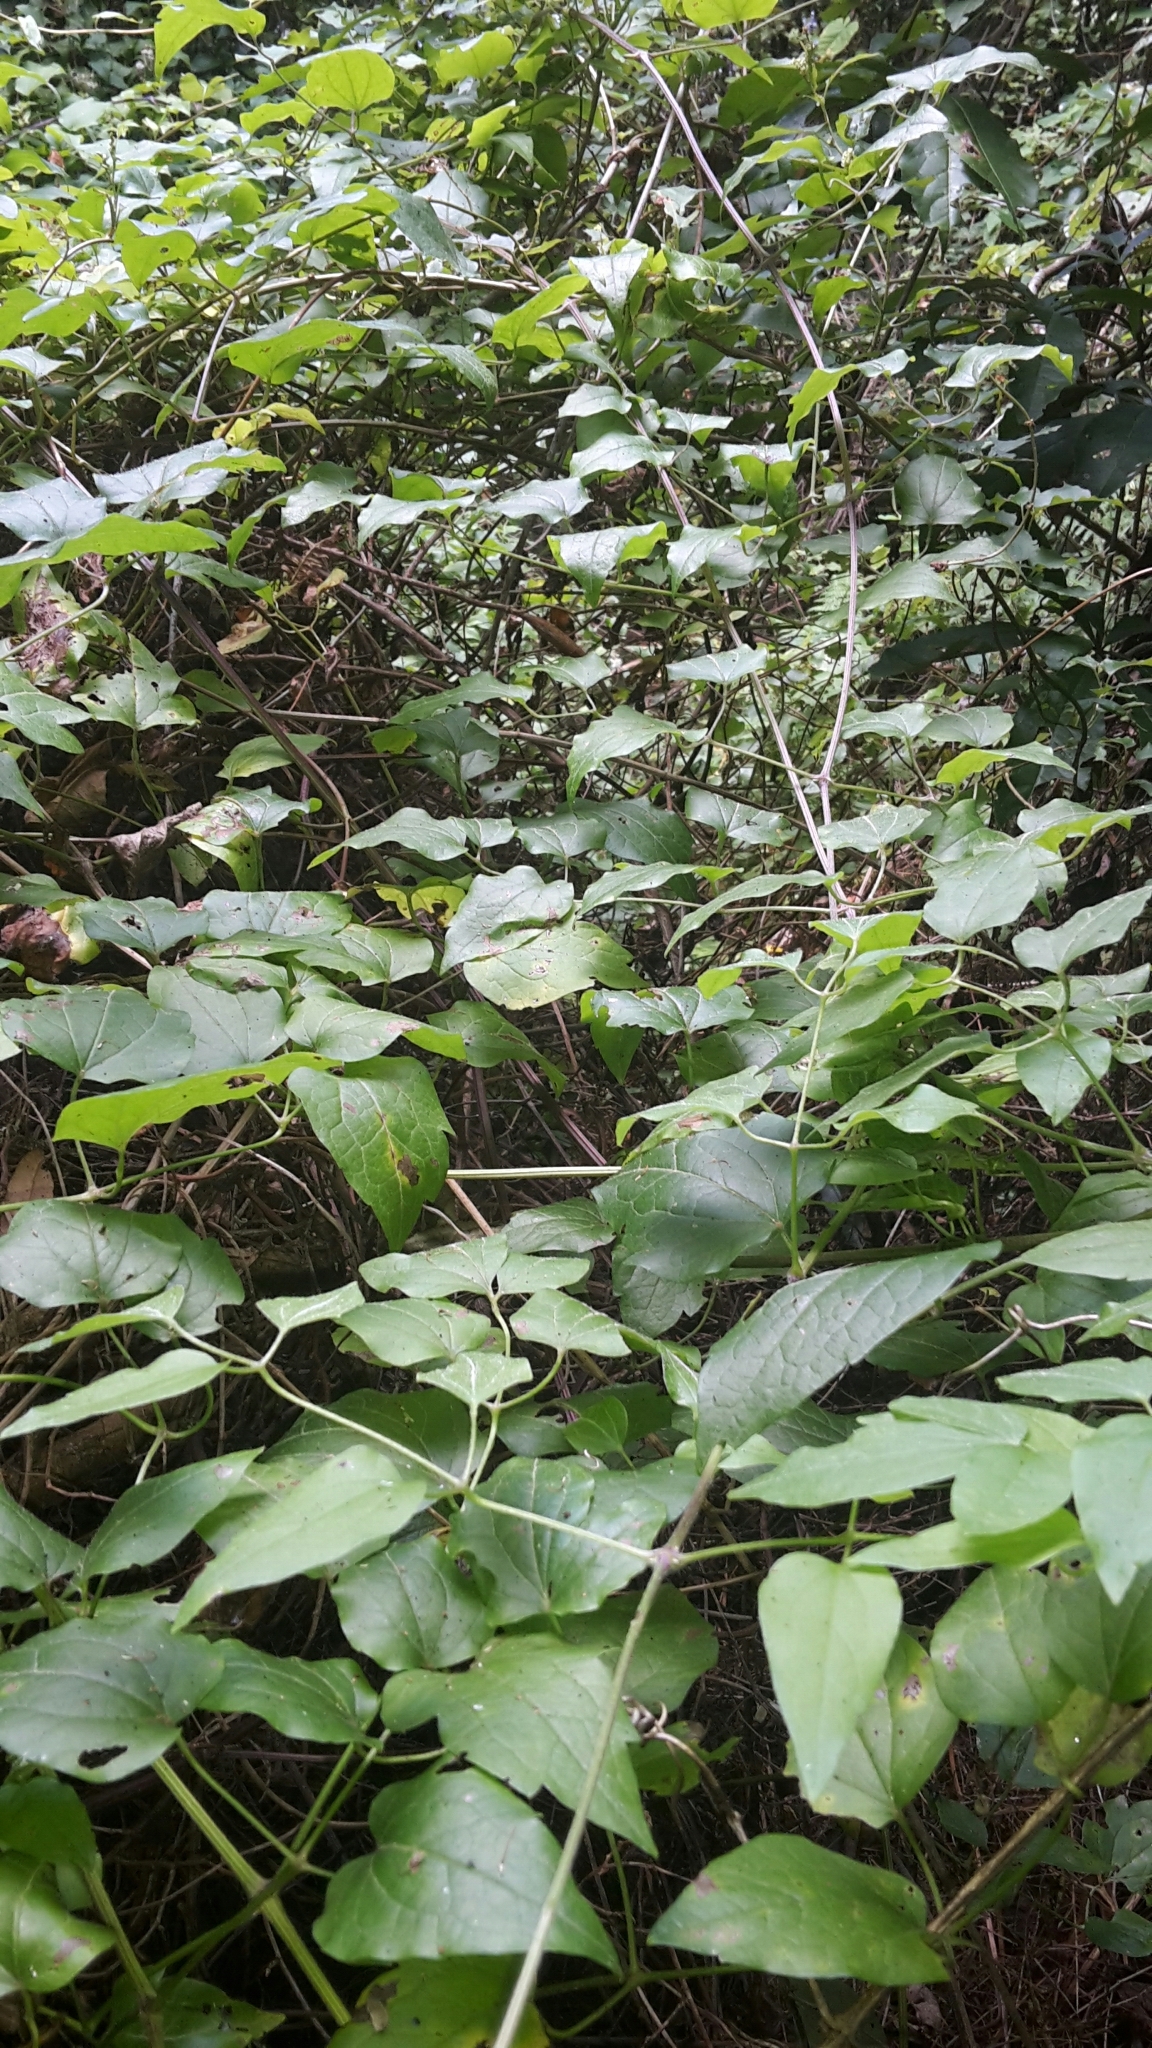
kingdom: Plantae
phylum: Tracheophyta
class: Magnoliopsida
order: Ranunculales
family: Ranunculaceae
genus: Clematis
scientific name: Clematis vitalba
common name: Evergreen clematis
